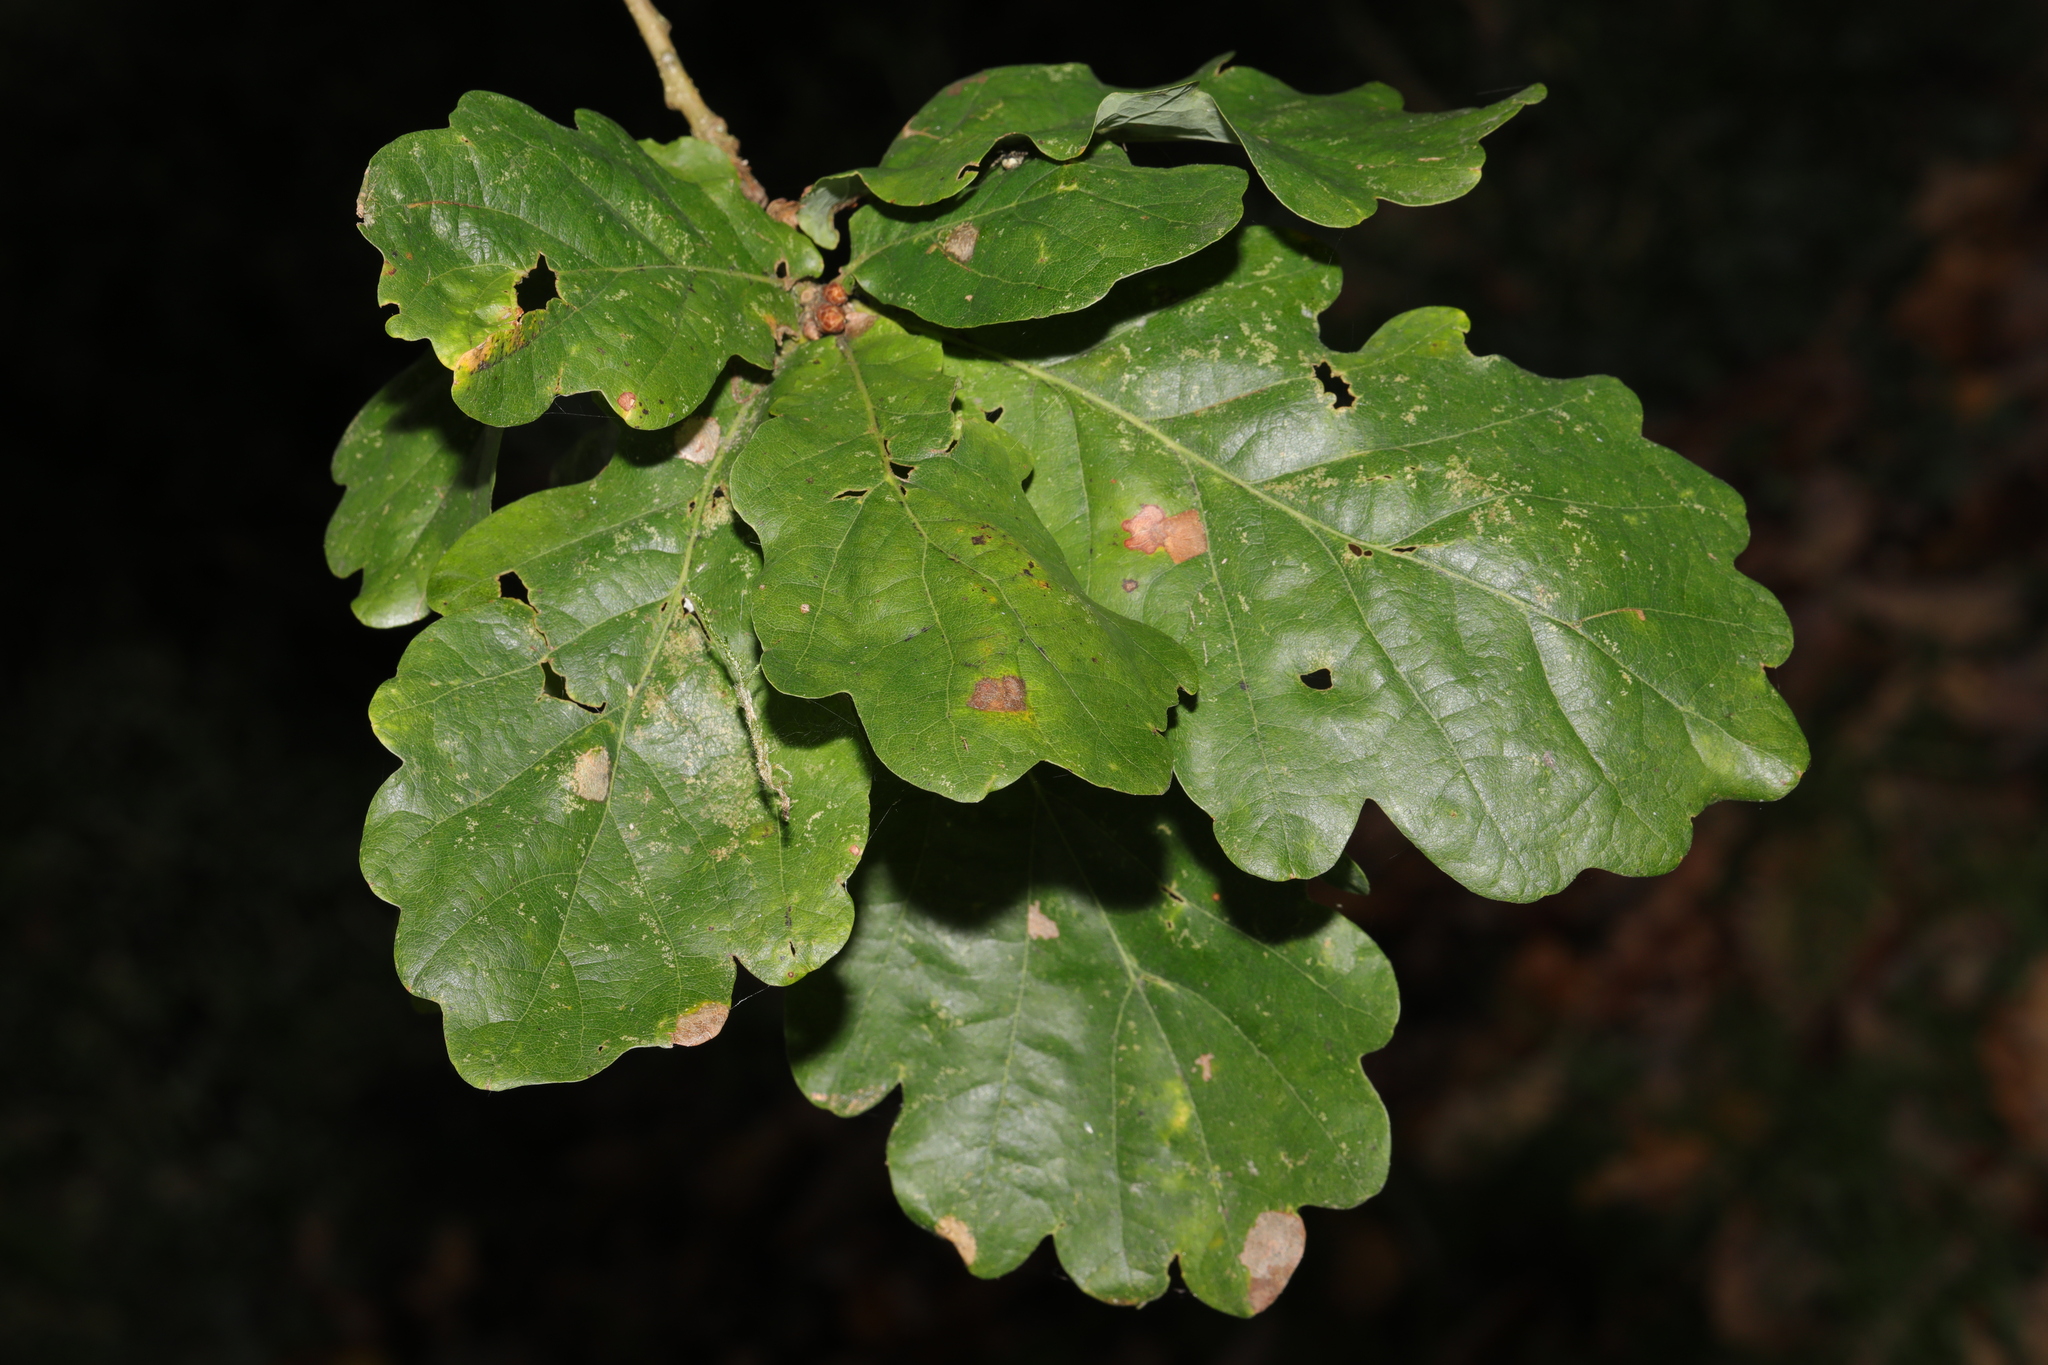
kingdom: Plantae
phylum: Tracheophyta
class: Magnoliopsida
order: Fagales
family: Fagaceae
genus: Quercus
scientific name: Quercus robur
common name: Pedunculate oak
